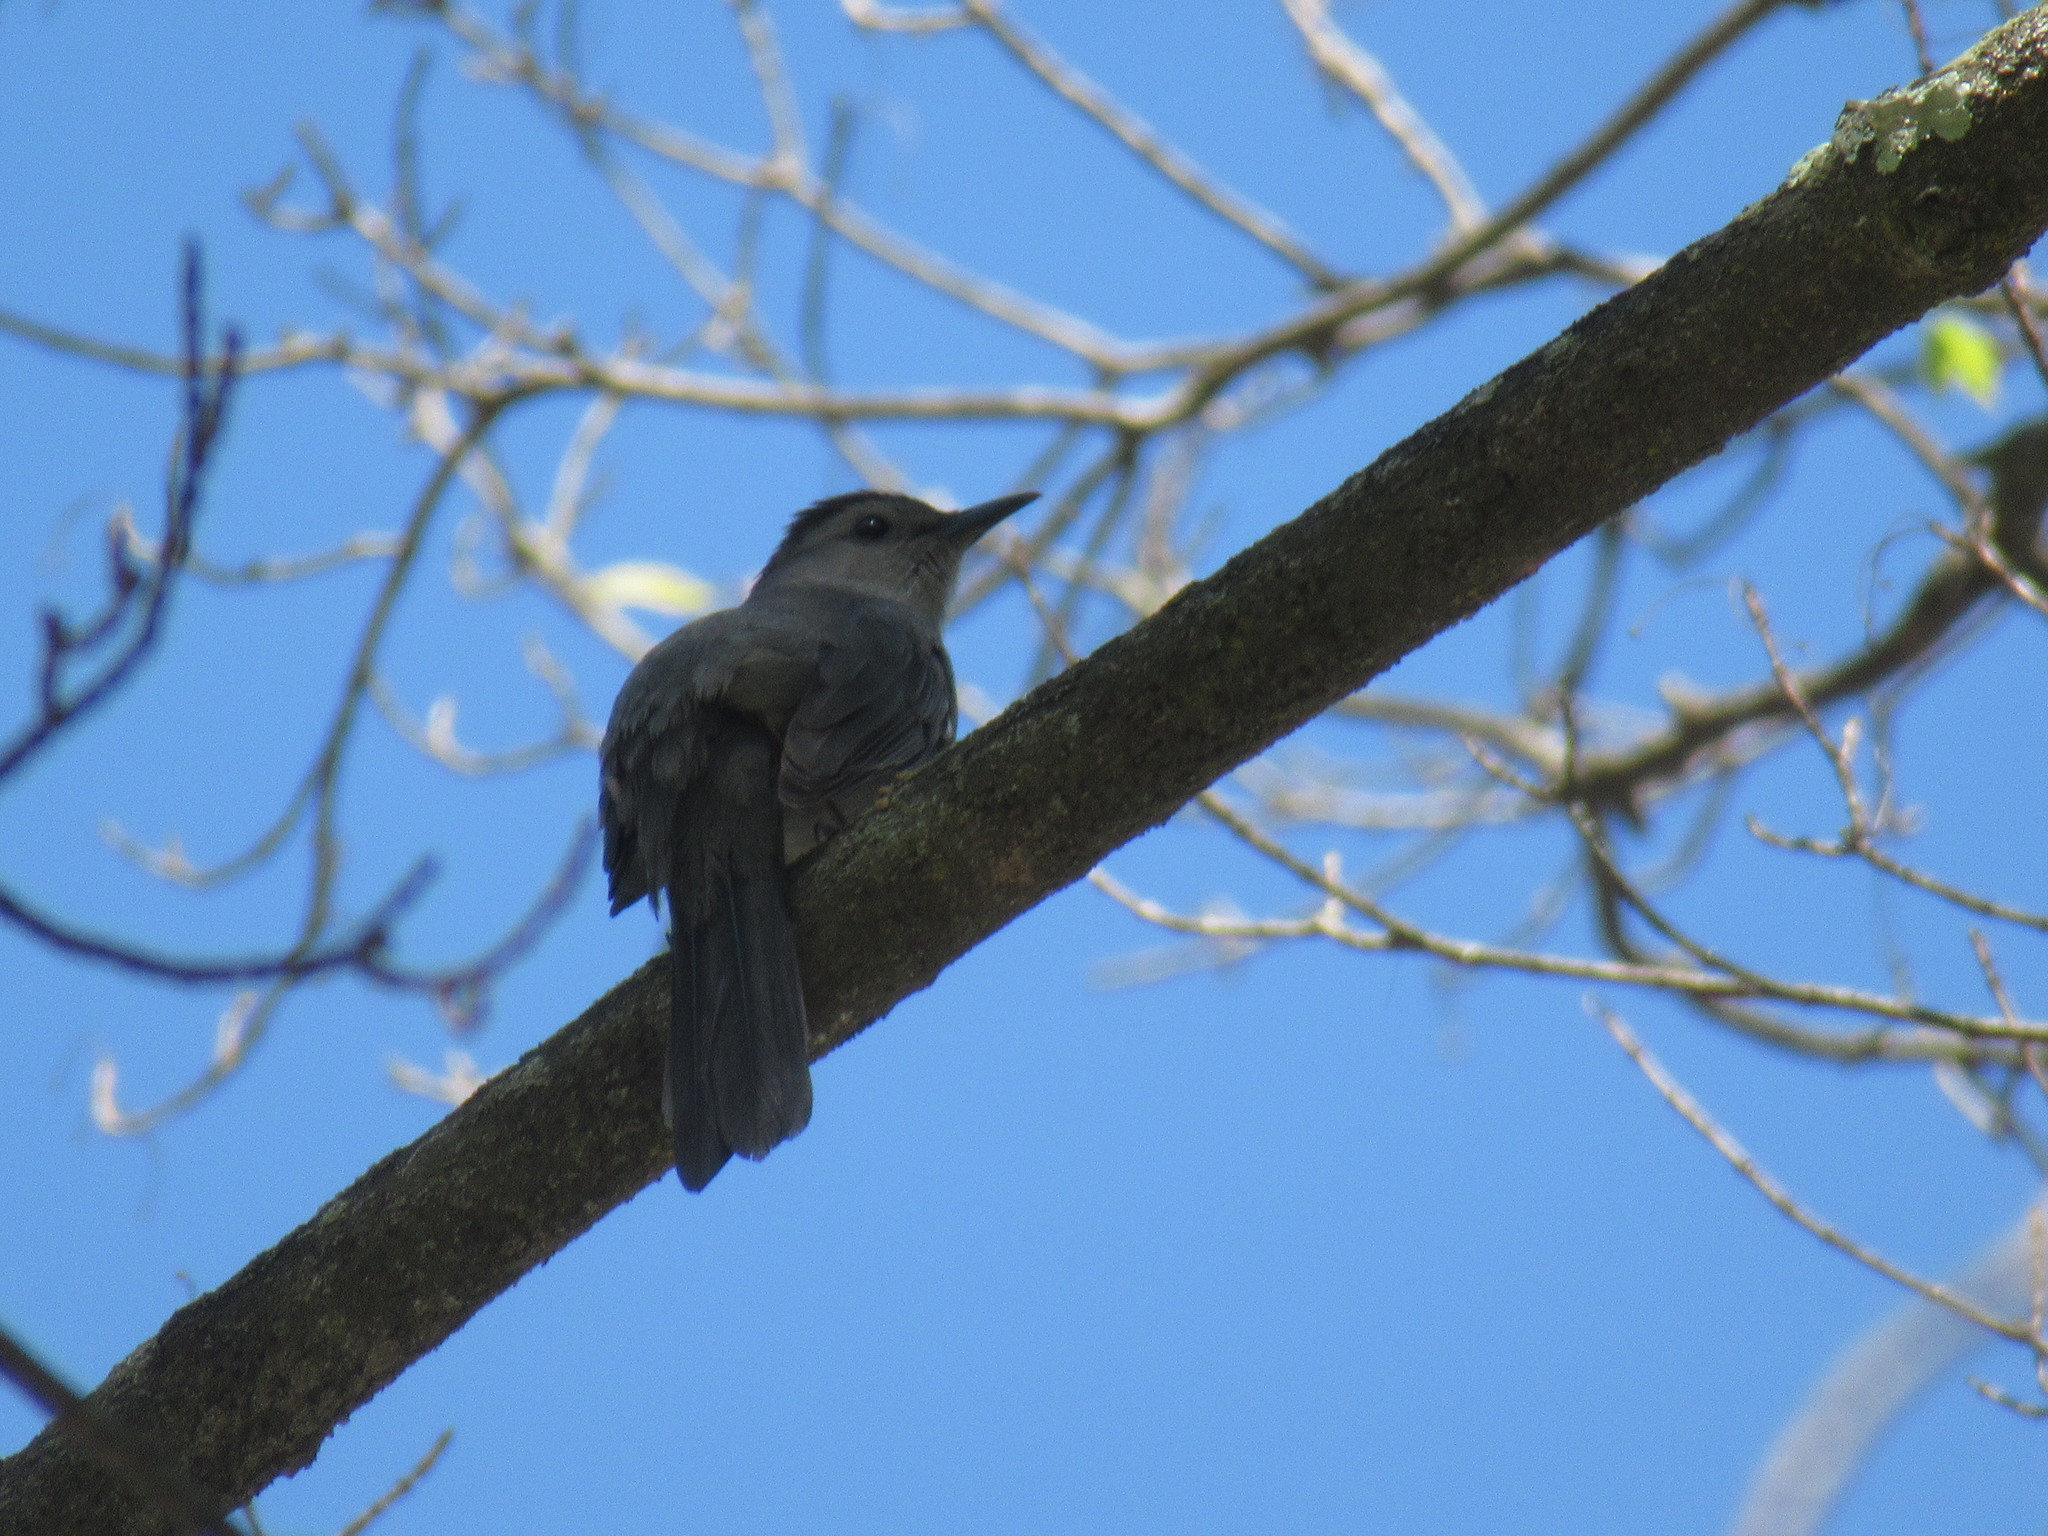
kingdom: Animalia
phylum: Chordata
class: Aves
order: Passeriformes
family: Mimidae
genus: Dumetella
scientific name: Dumetella carolinensis
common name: Gray catbird
